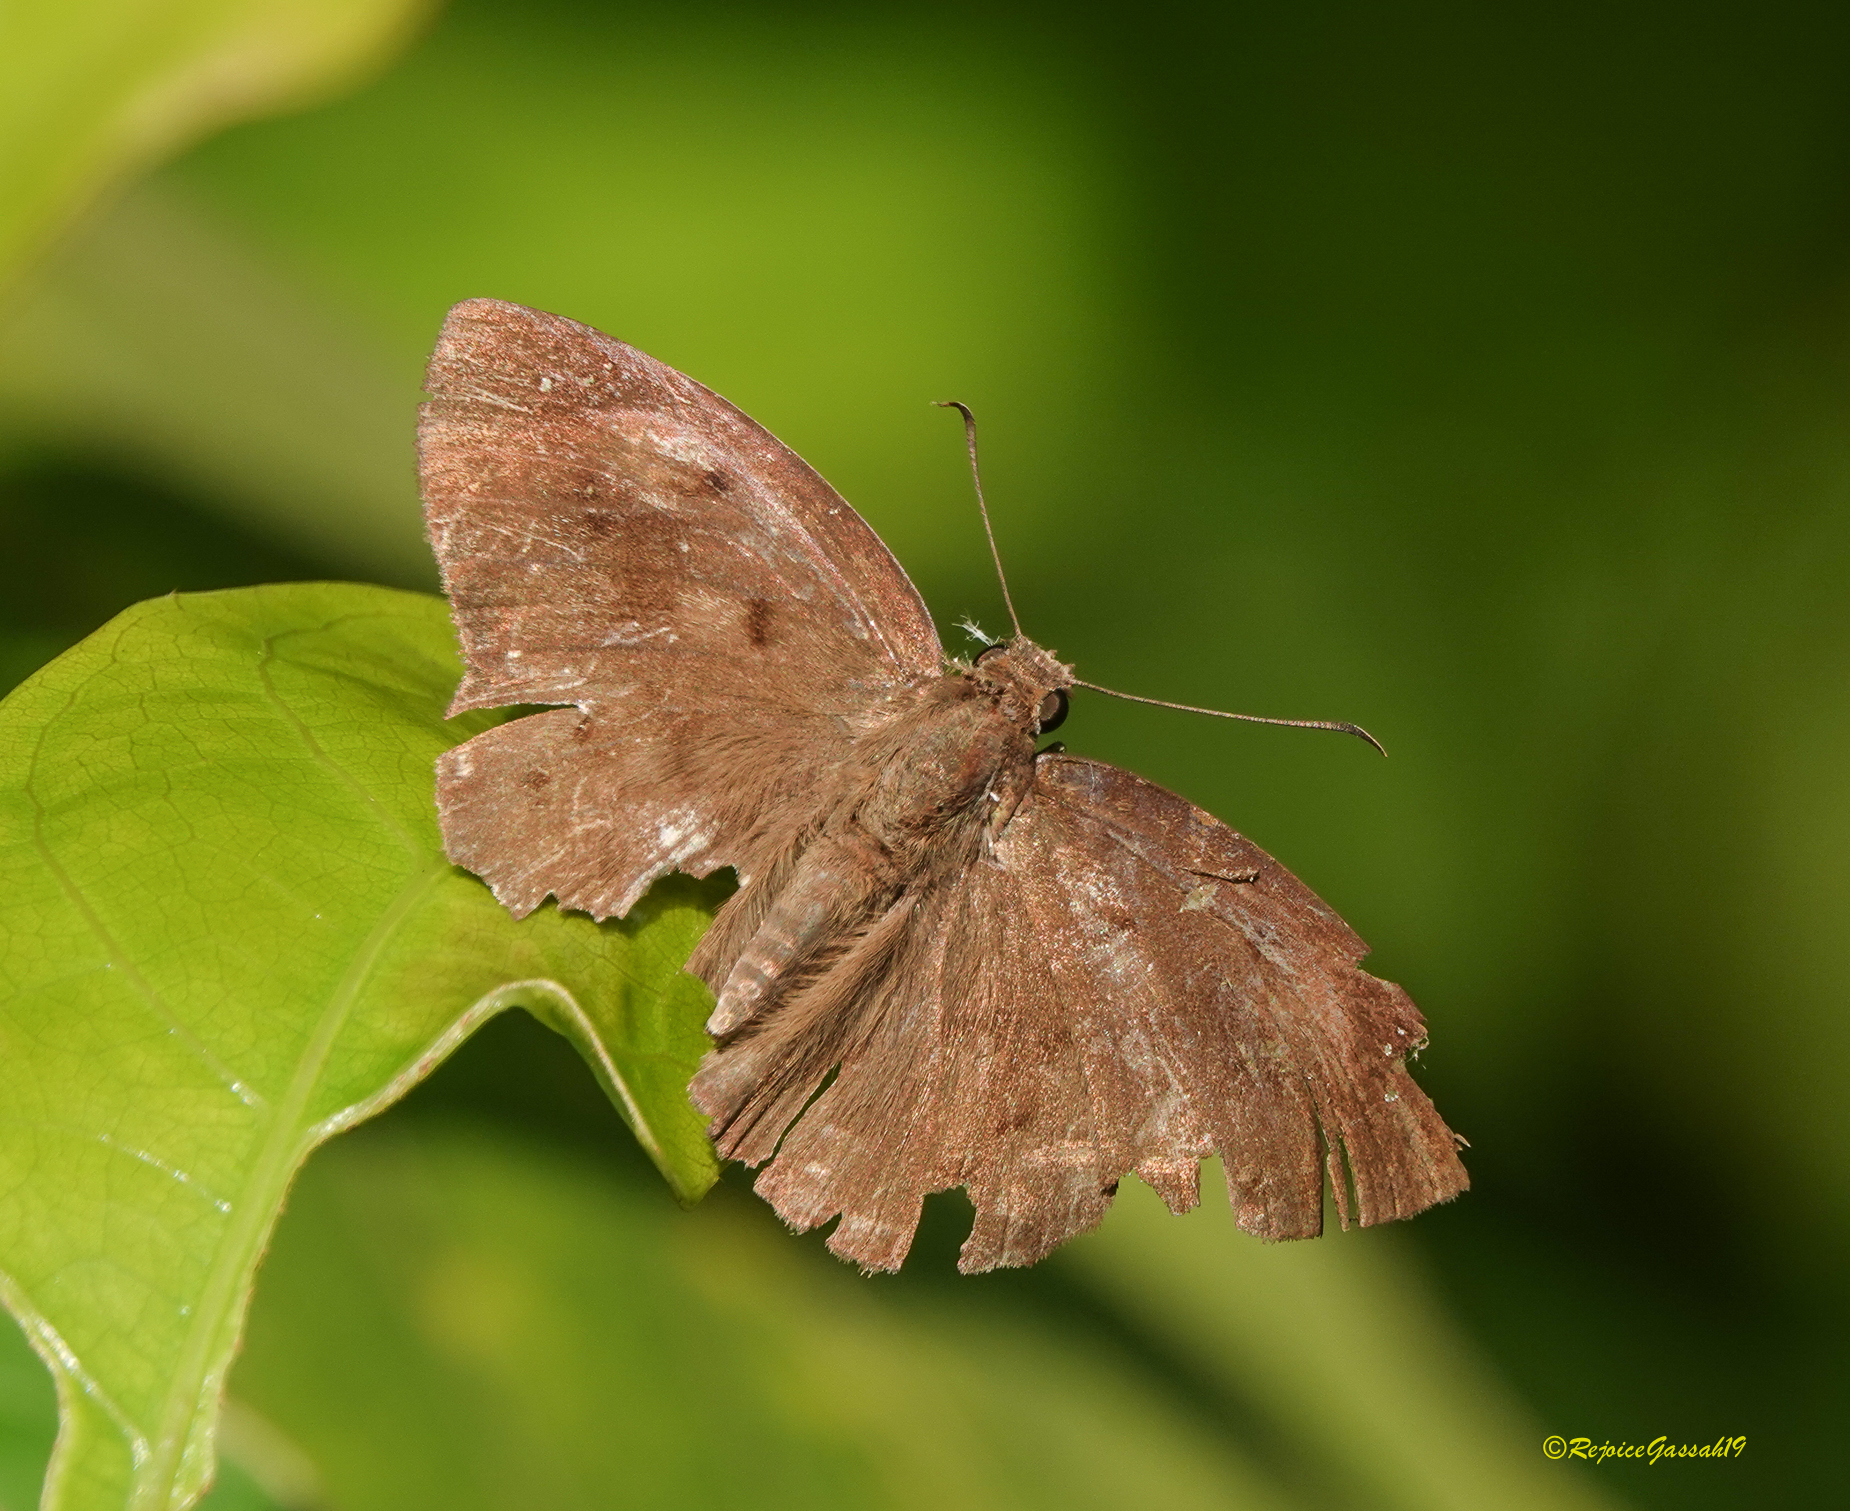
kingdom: Animalia
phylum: Arthropoda
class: Insecta
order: Lepidoptera
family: Hesperiidae
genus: Tagiades
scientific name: Tagiades japetus
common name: Pied flat
